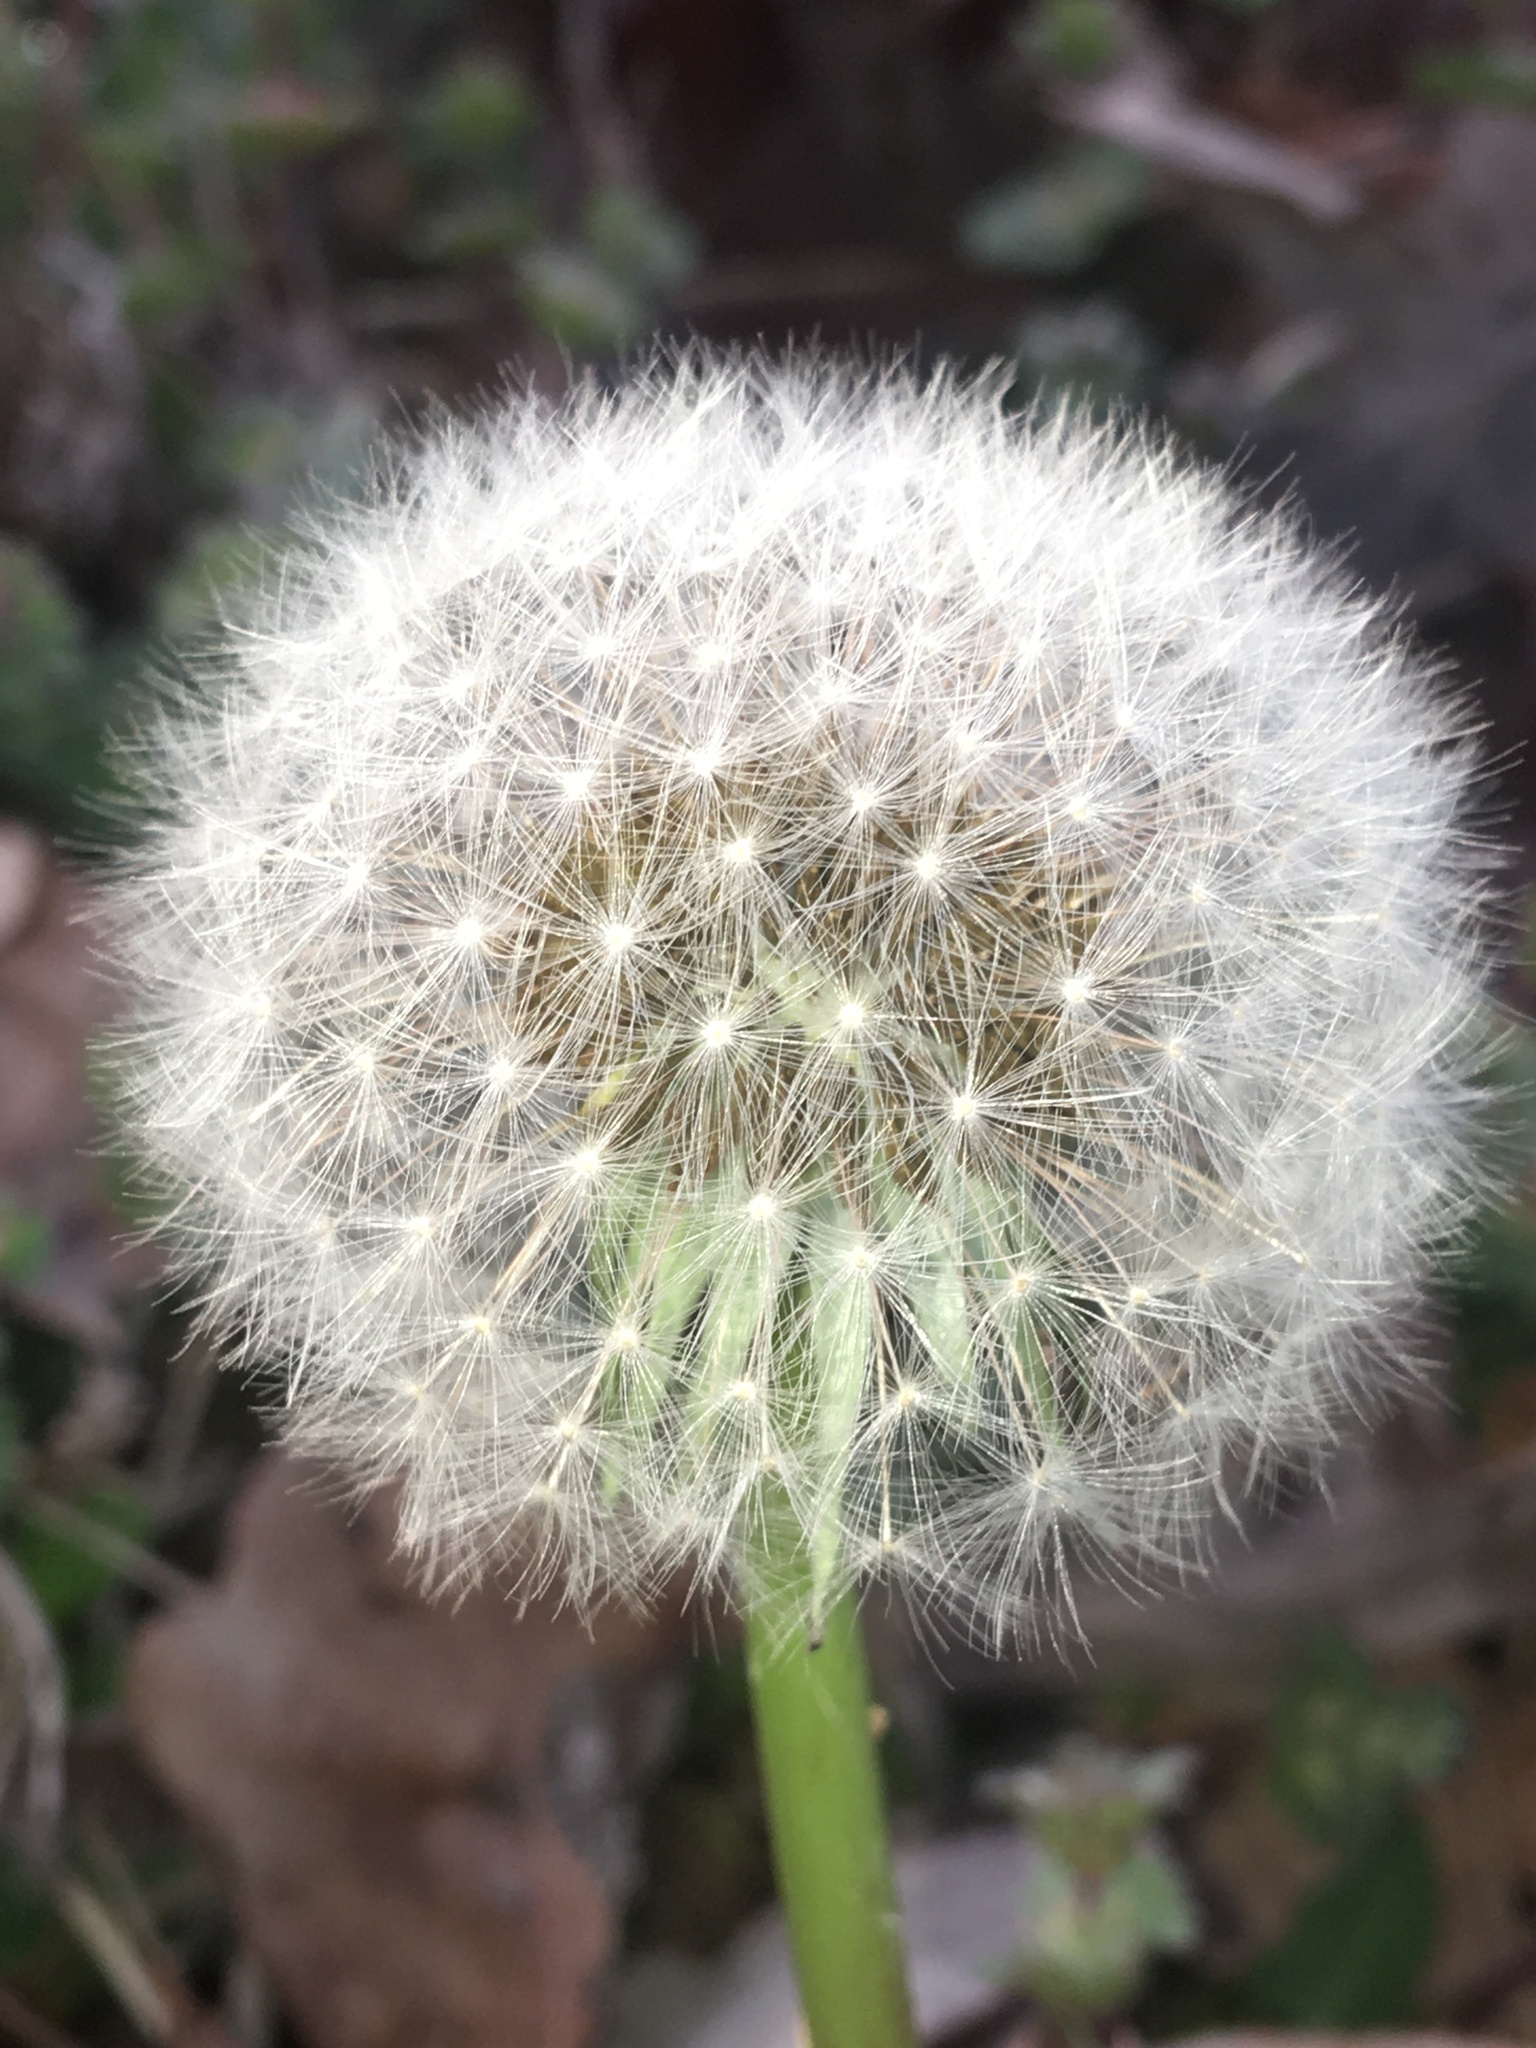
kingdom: Plantae
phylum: Tracheophyta
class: Magnoliopsida
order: Asterales
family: Asteraceae
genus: Taraxacum
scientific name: Taraxacum officinale
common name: Common dandelion
